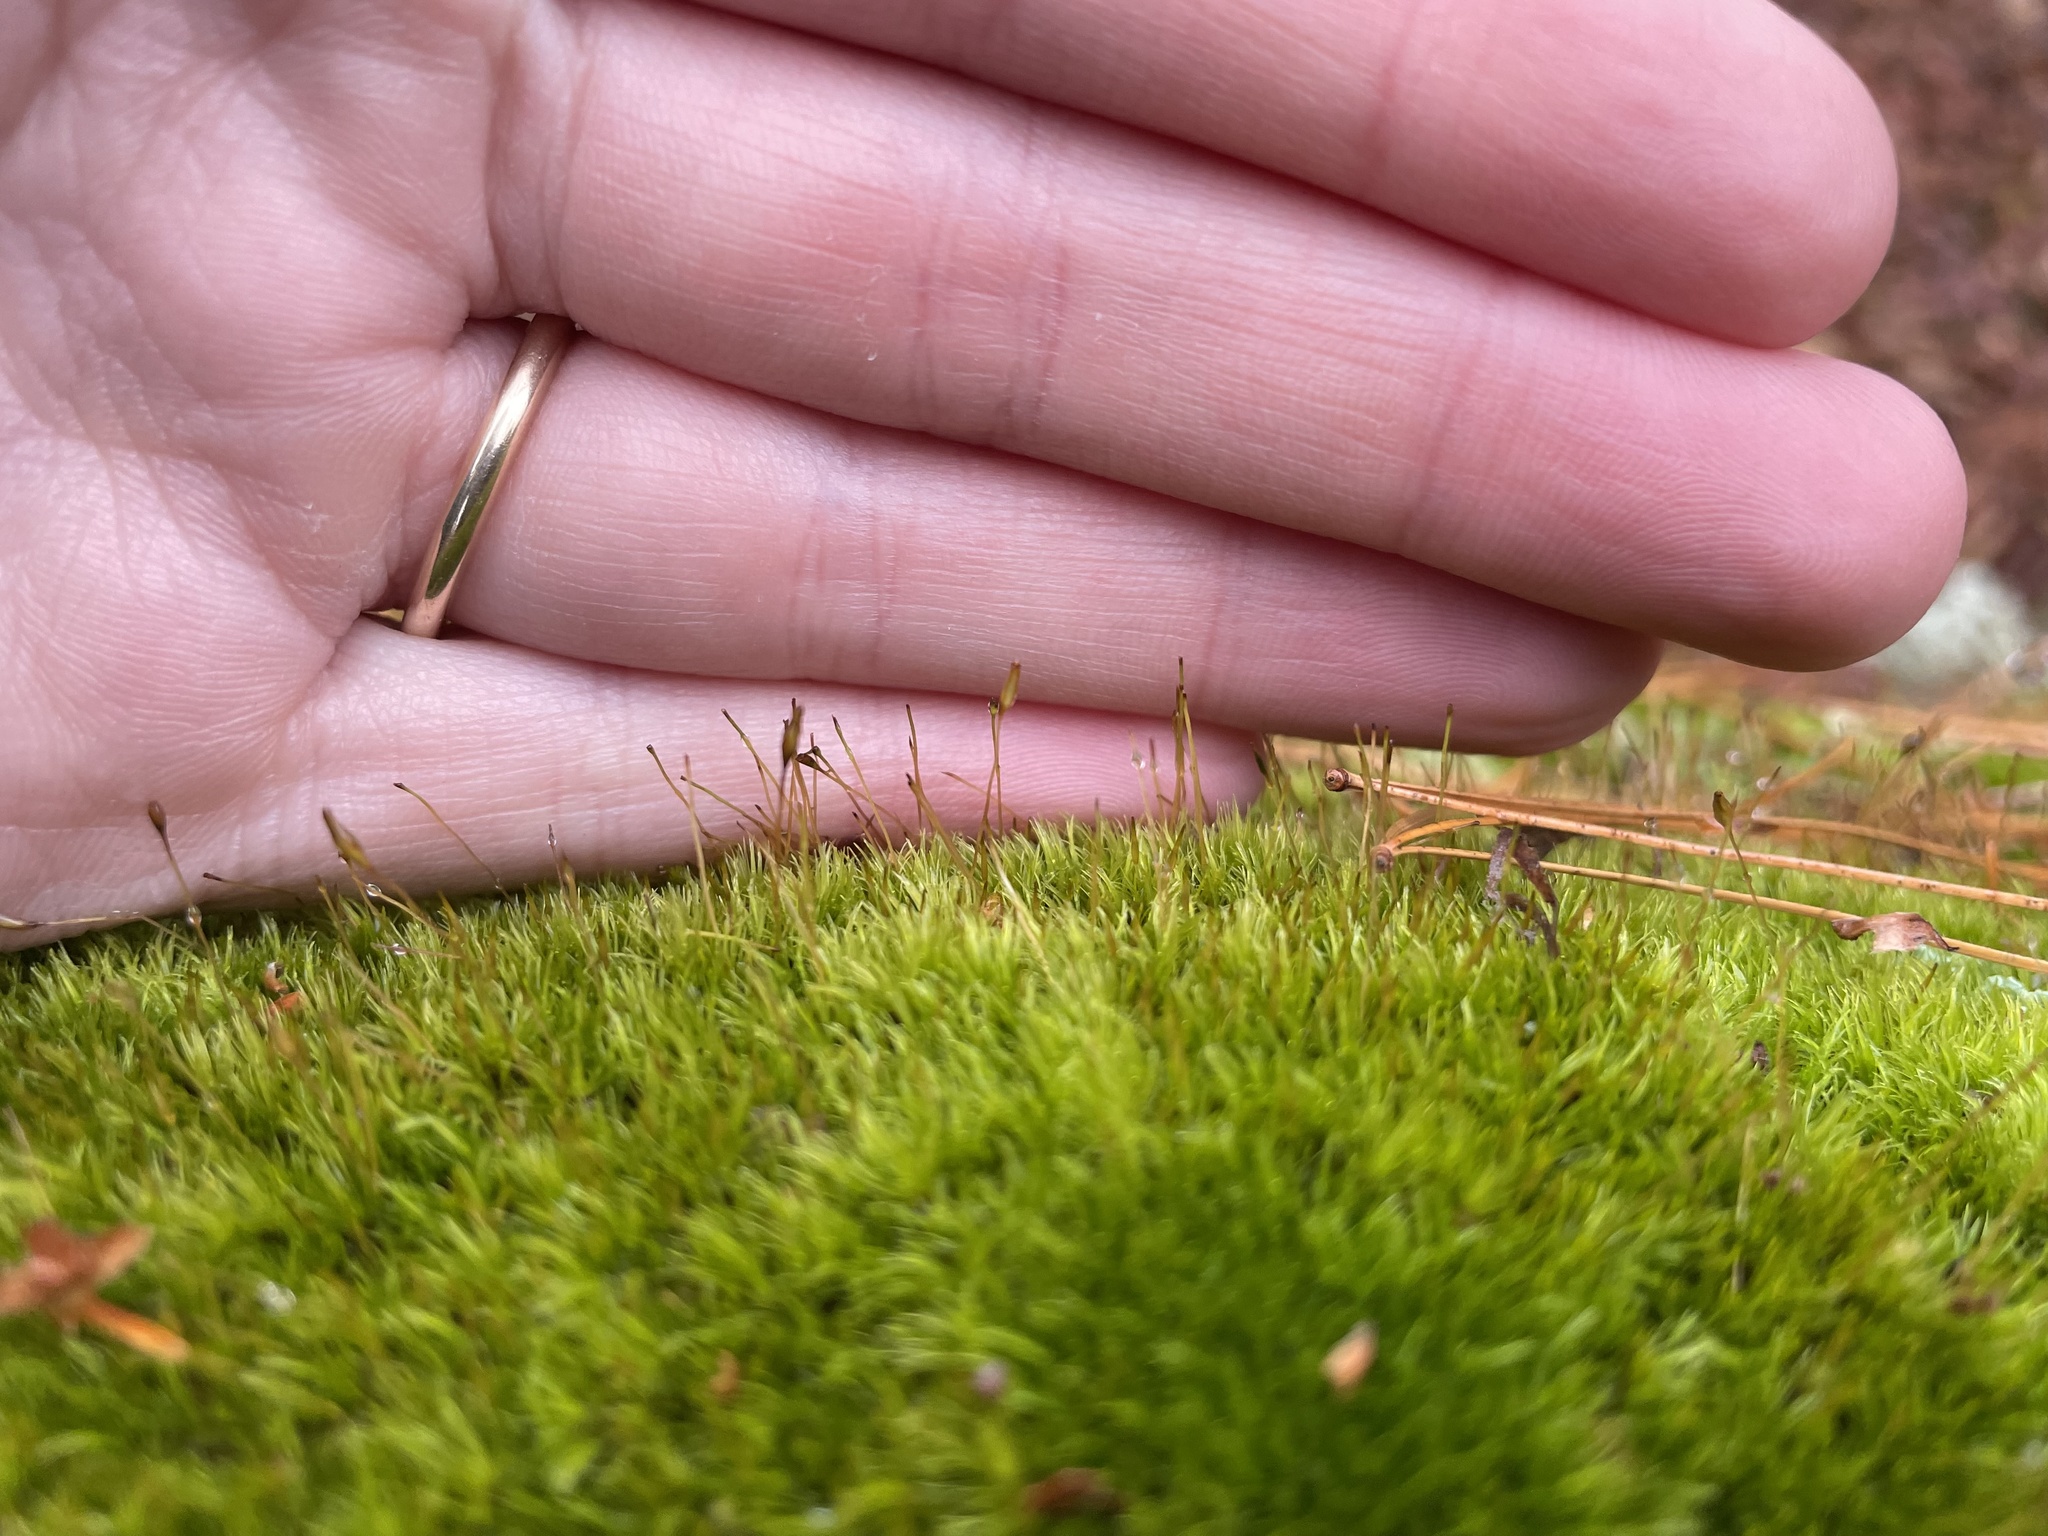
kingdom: Plantae
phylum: Bryophyta
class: Bryopsida
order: Dicranales
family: Leucobryaceae
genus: Leucobryum
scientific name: Leucobryum glaucum
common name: Large white-moss
